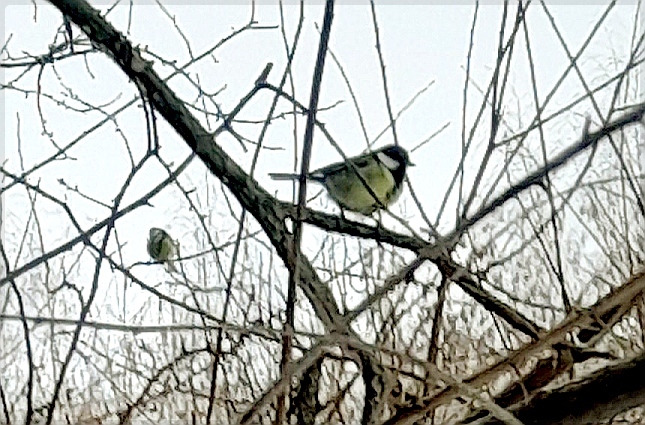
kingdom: Animalia
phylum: Chordata
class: Aves
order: Passeriformes
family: Paridae
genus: Parus
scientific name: Parus major
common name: Great tit
